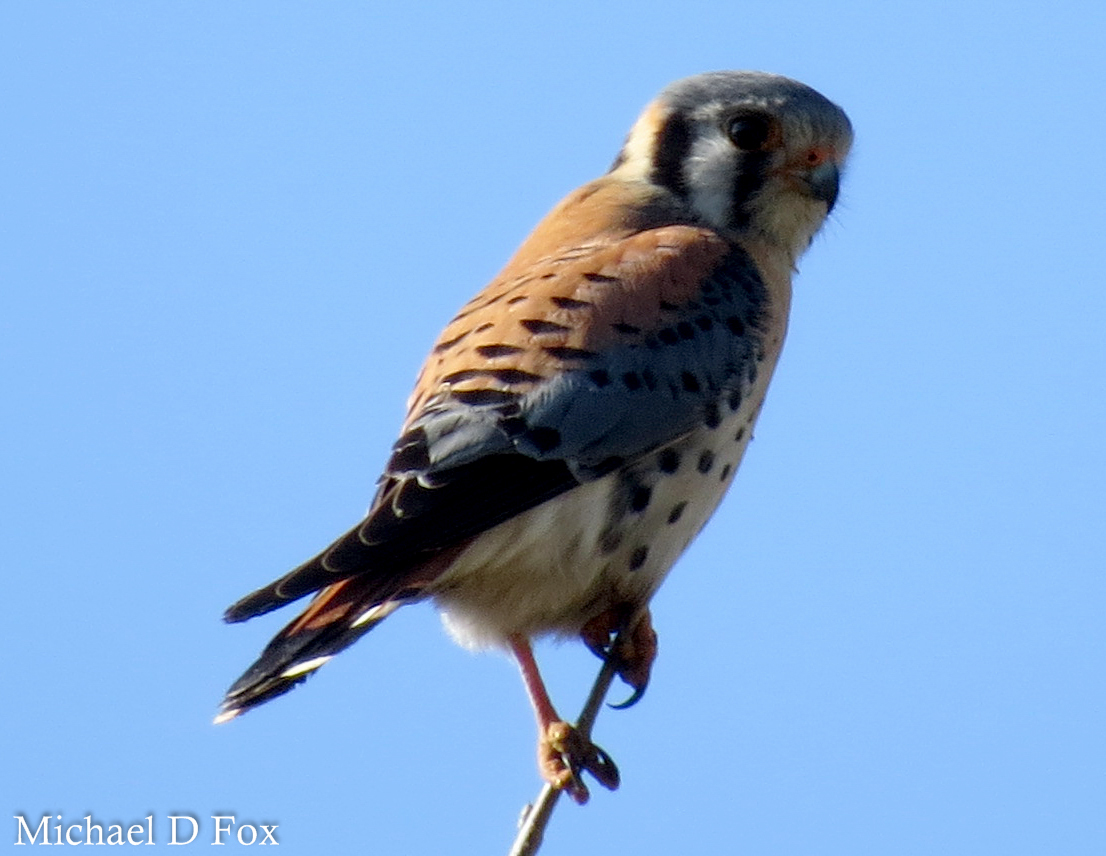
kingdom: Animalia
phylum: Chordata
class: Aves
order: Falconiformes
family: Falconidae
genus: Falco
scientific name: Falco sparverius
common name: American kestrel
